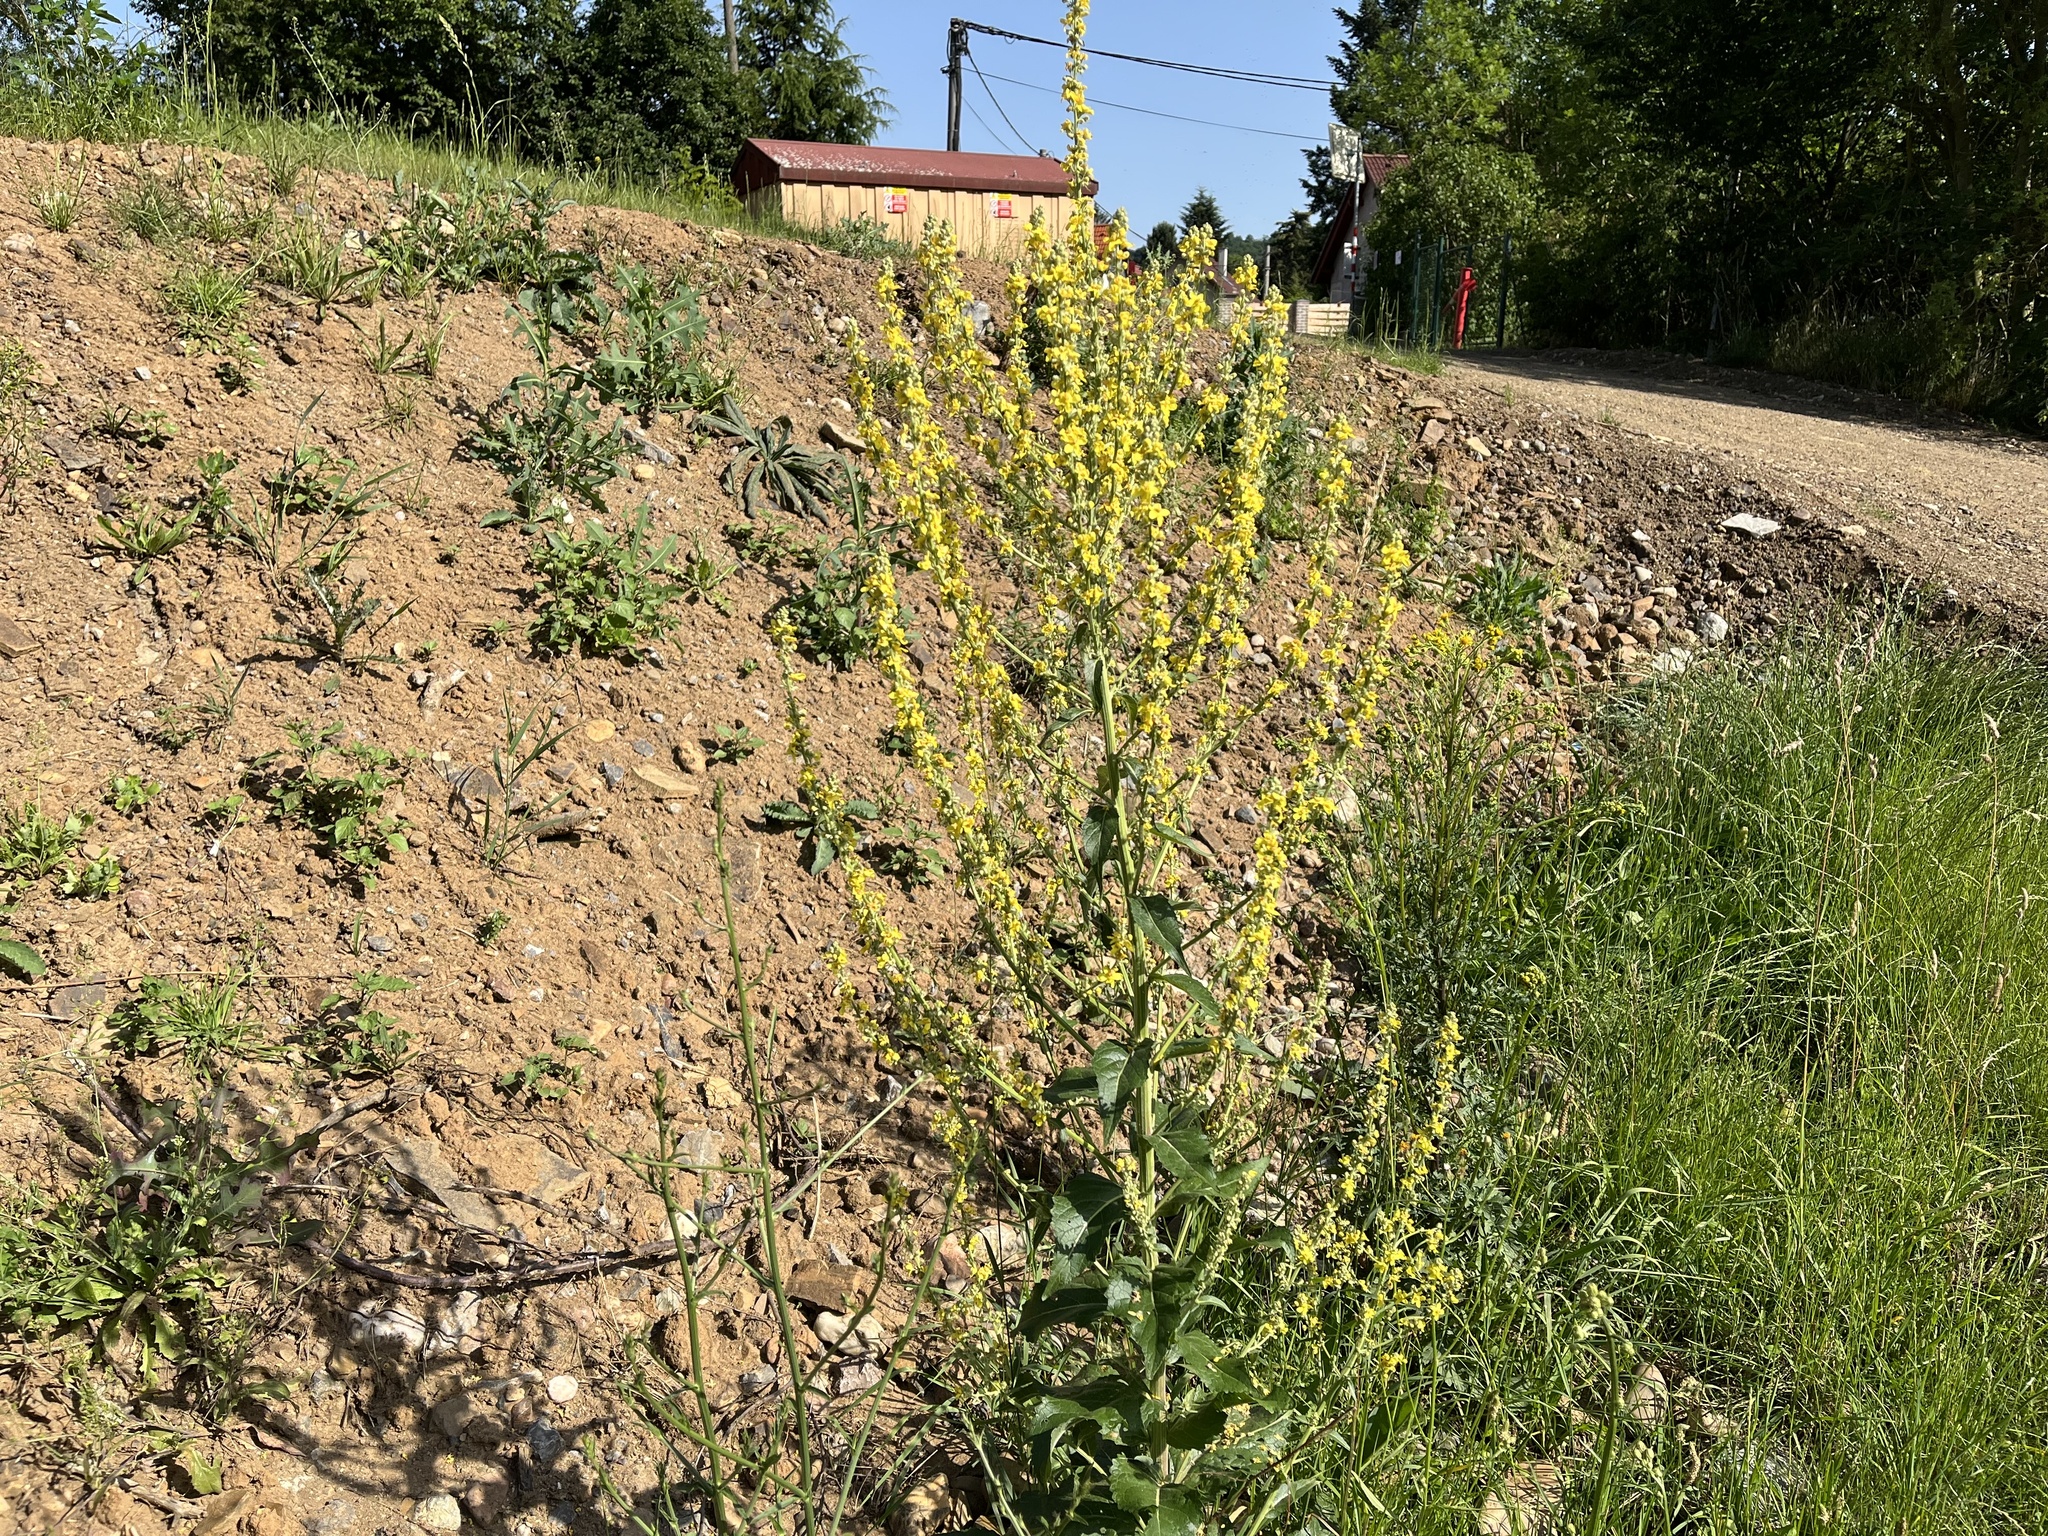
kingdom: Plantae
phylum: Tracheophyta
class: Magnoliopsida
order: Lamiales
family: Scrophulariaceae
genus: Verbascum
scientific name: Verbascum lychnitis
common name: White mullein
